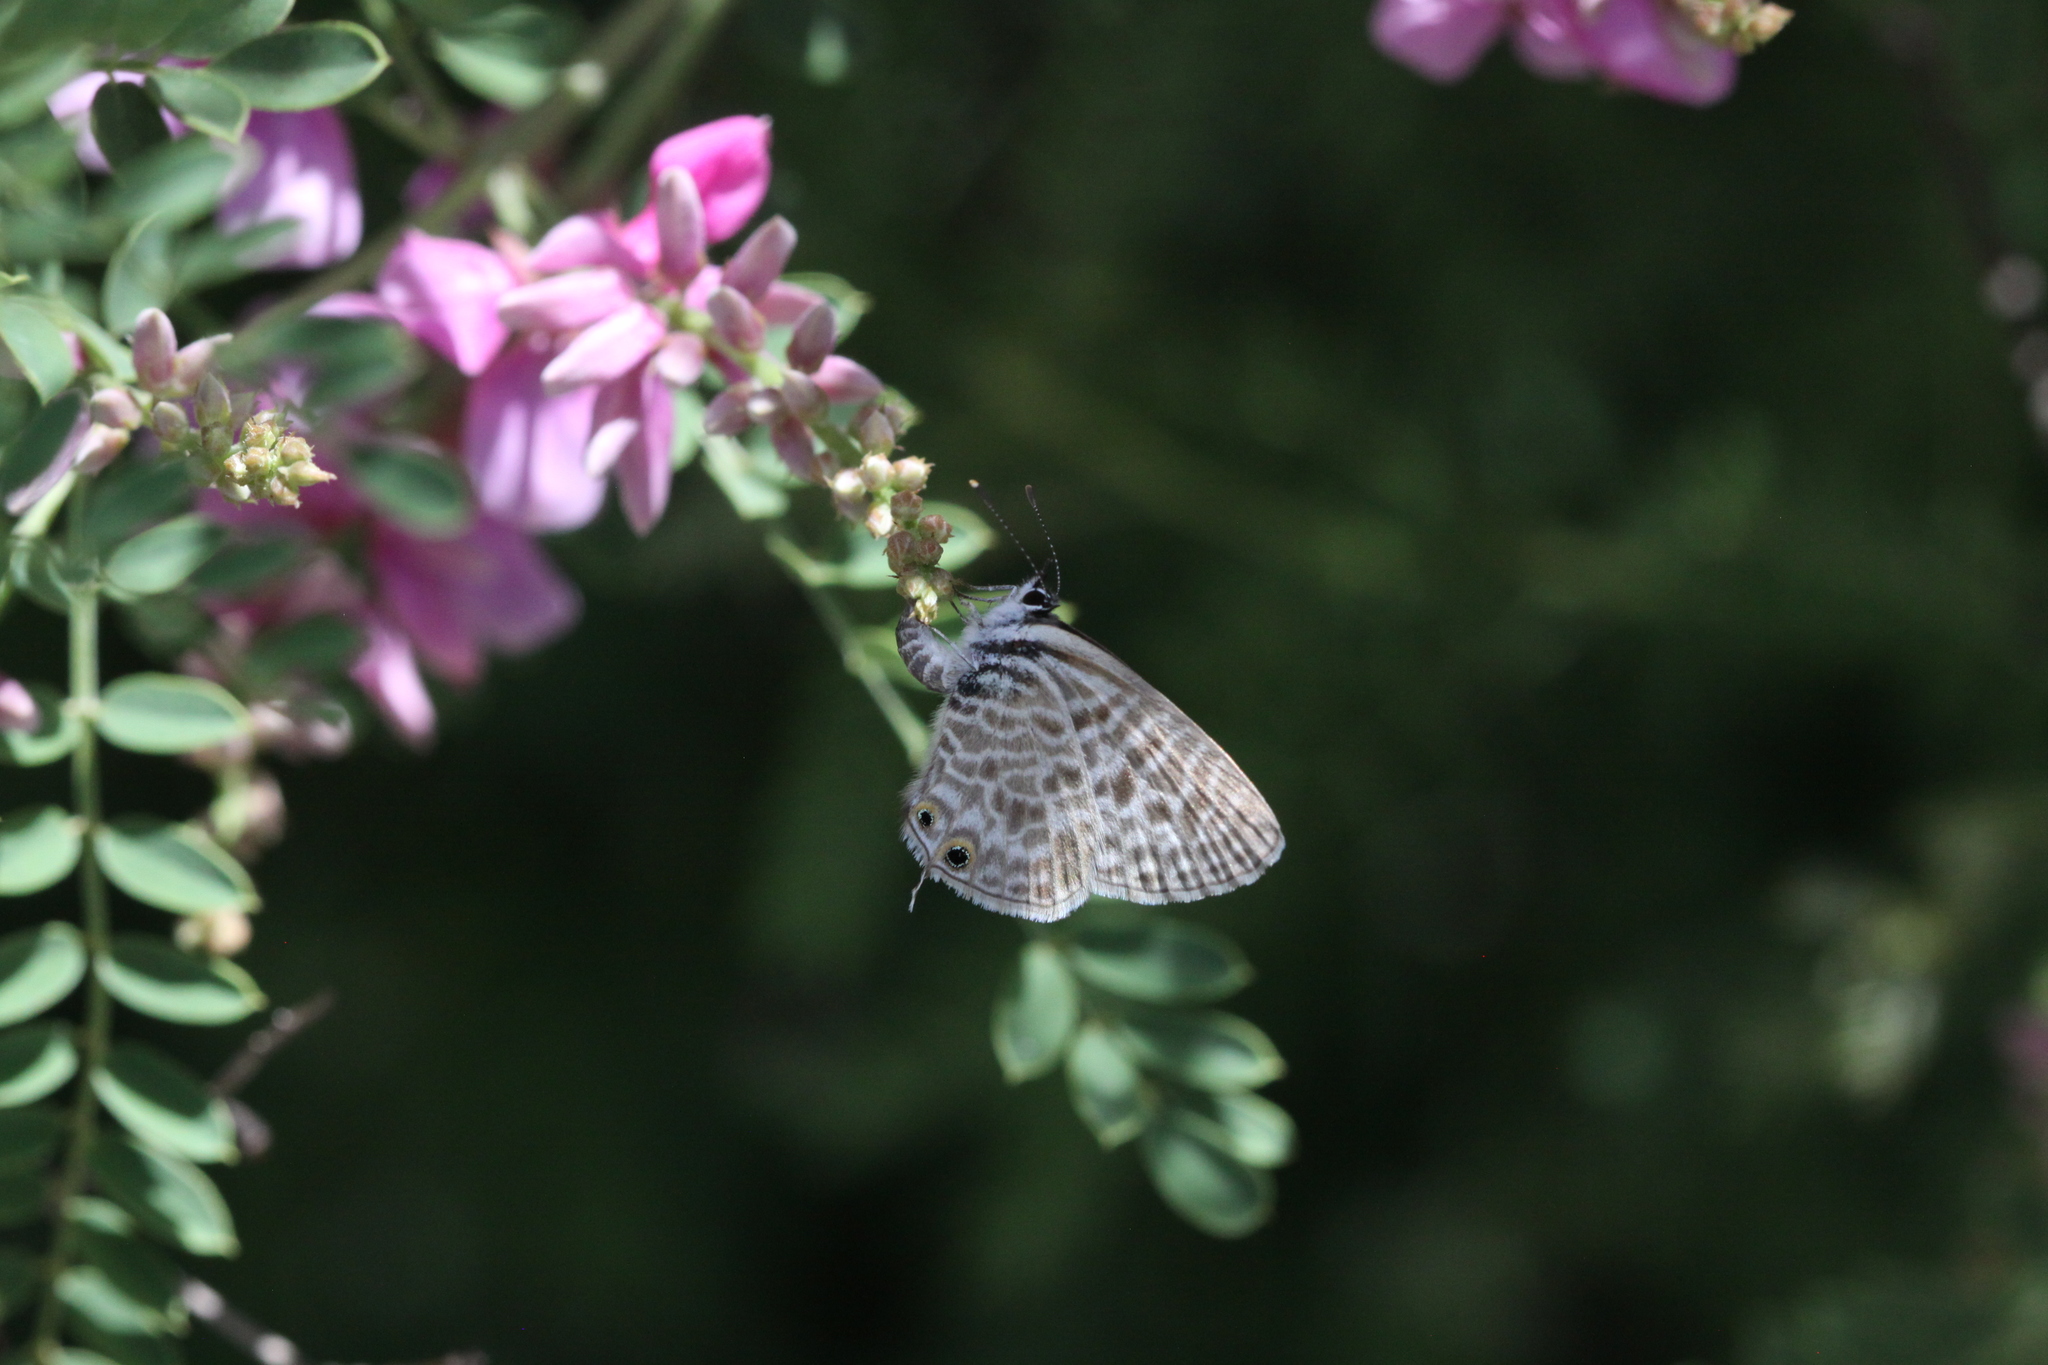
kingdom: Animalia
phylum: Arthropoda
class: Insecta
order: Lepidoptera
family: Lycaenidae
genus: Leptotes
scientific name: Leptotes pirithous
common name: Lang's short-tailed blue
